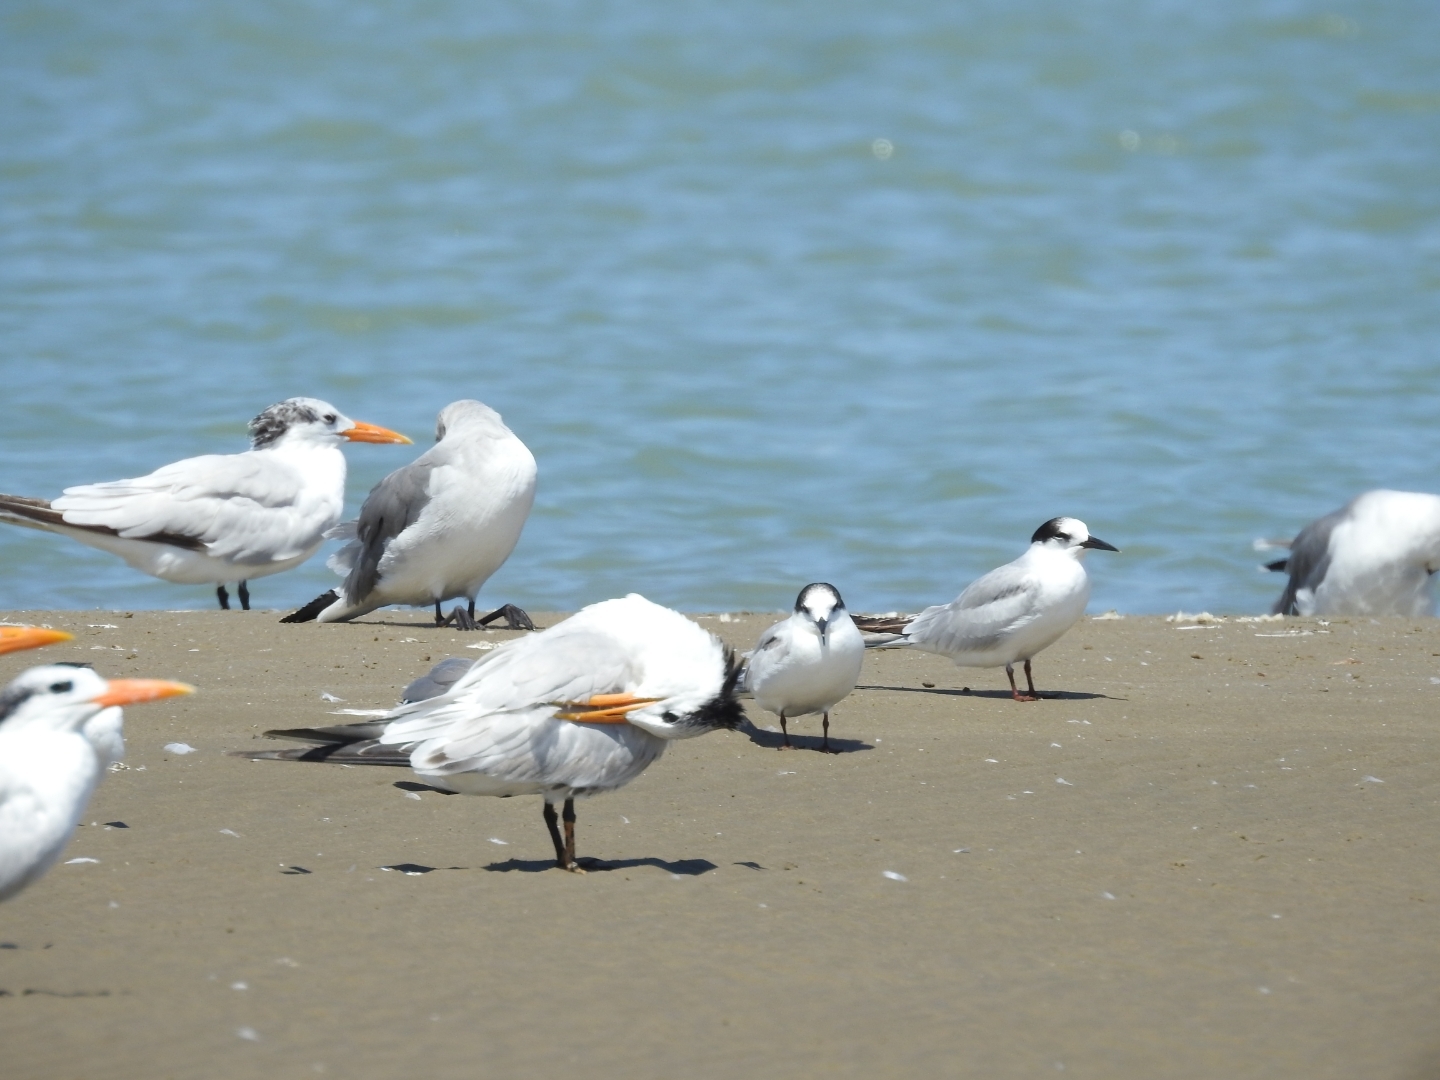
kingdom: Animalia
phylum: Chordata
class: Aves
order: Charadriiformes
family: Laridae
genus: Thalasseus
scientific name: Thalasseus maximus
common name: Royal tern
